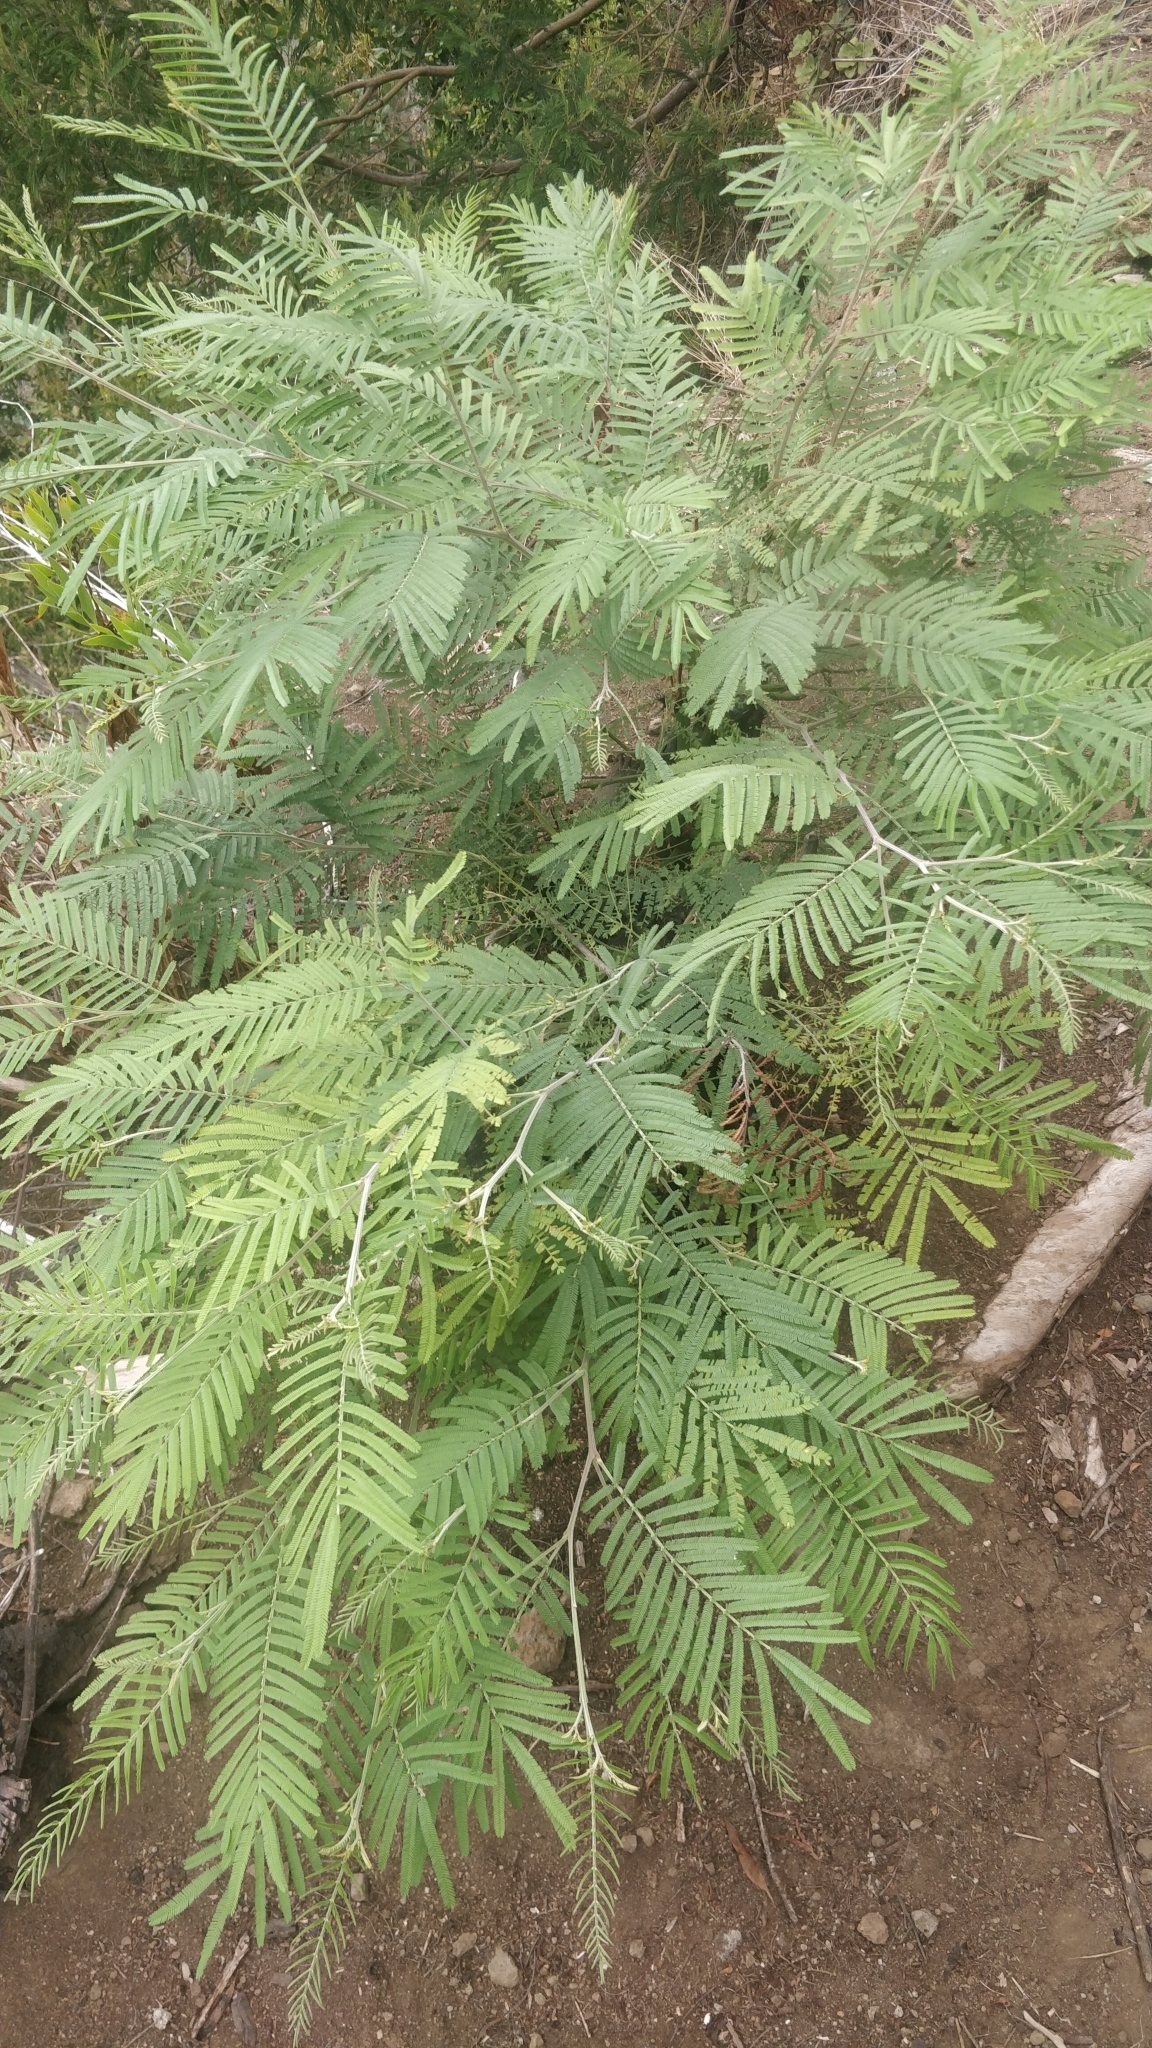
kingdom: Plantae
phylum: Tracheophyta
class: Magnoliopsida
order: Fabales
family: Fabaceae
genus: Acacia
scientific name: Acacia mearnsii
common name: Black wattle
